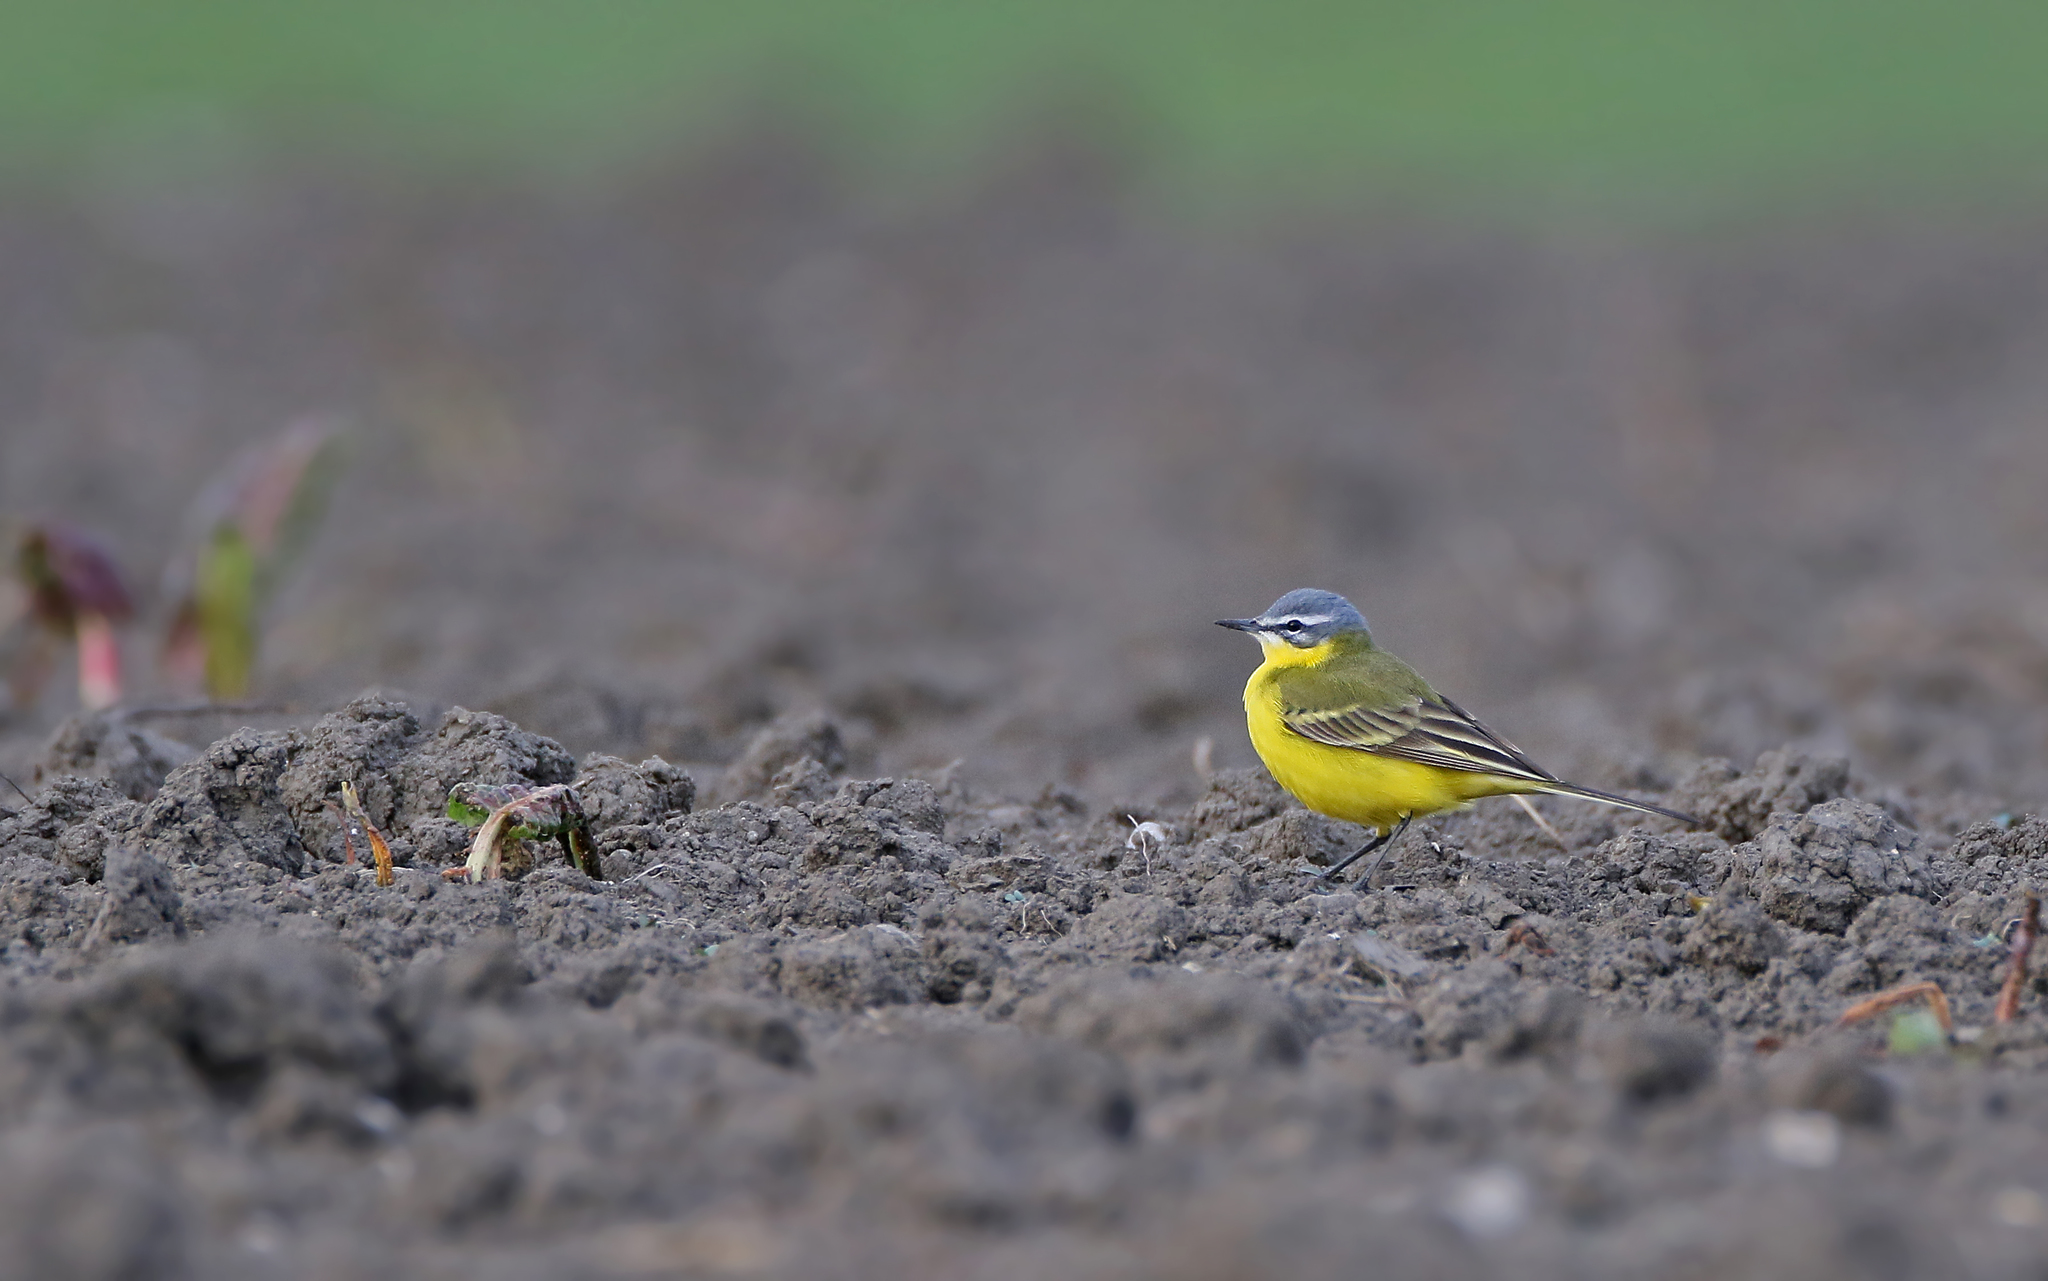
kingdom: Animalia
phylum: Chordata
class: Aves
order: Passeriformes
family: Motacillidae
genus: Motacilla
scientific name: Motacilla flava
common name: Western yellow wagtail
